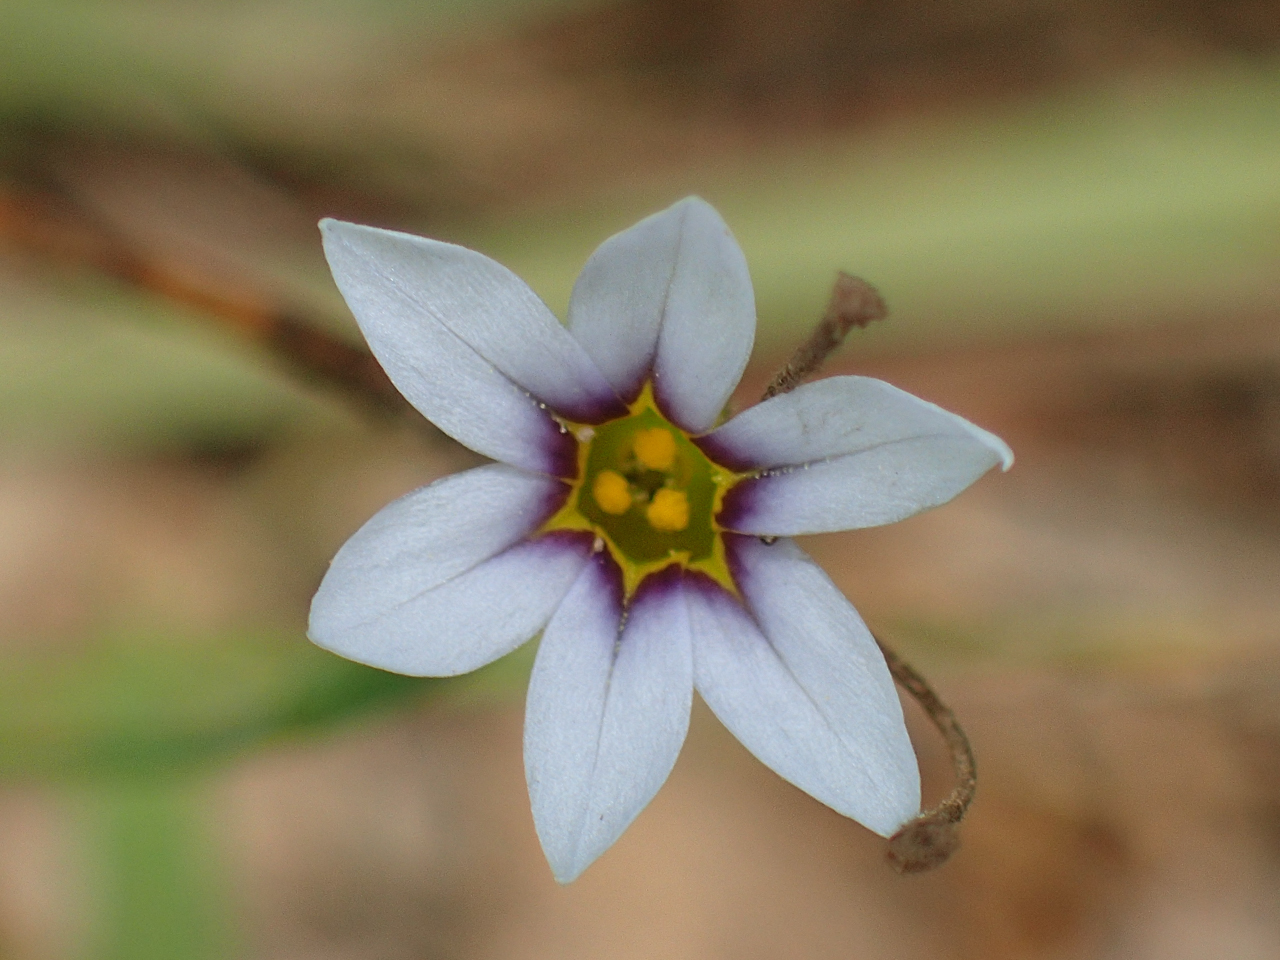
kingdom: Plantae
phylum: Tracheophyta
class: Liliopsida
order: Asparagales
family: Iridaceae
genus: Sisyrinchium
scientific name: Sisyrinchium micranthum
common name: Bermuda pigroot
